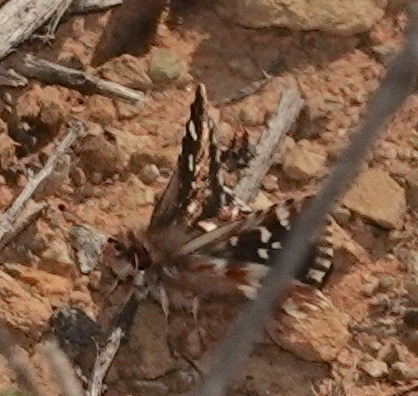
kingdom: Animalia
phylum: Arthropoda
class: Insecta
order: Lepidoptera
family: Hesperiidae
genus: Ernsta
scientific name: Ernsta
